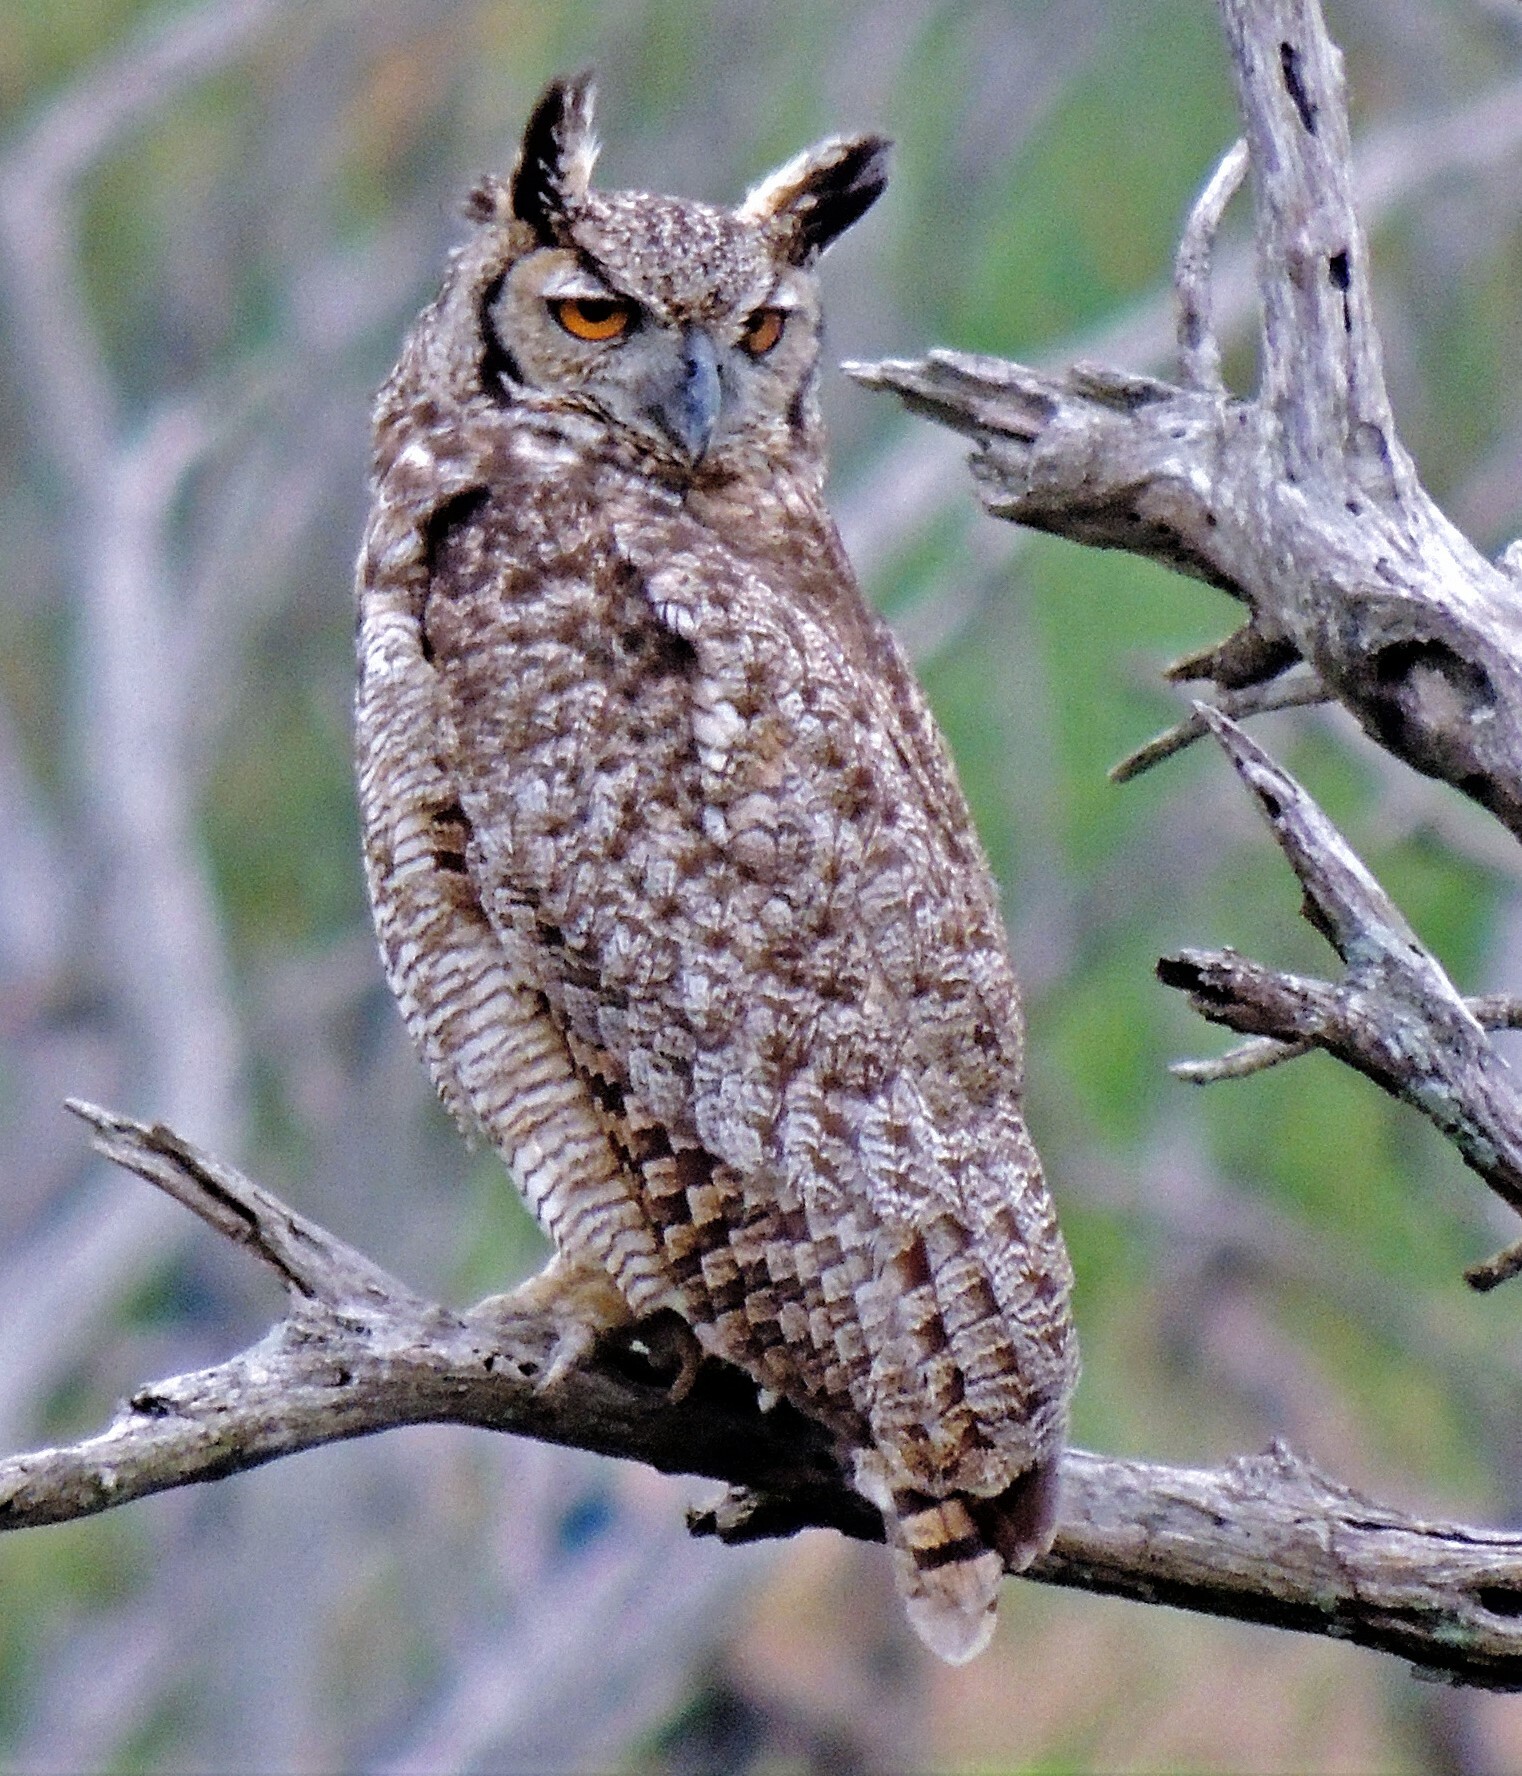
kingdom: Animalia
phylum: Chordata
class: Aves
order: Strigiformes
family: Strigidae
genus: Bubo
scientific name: Bubo virginianus
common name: Great horned owl
